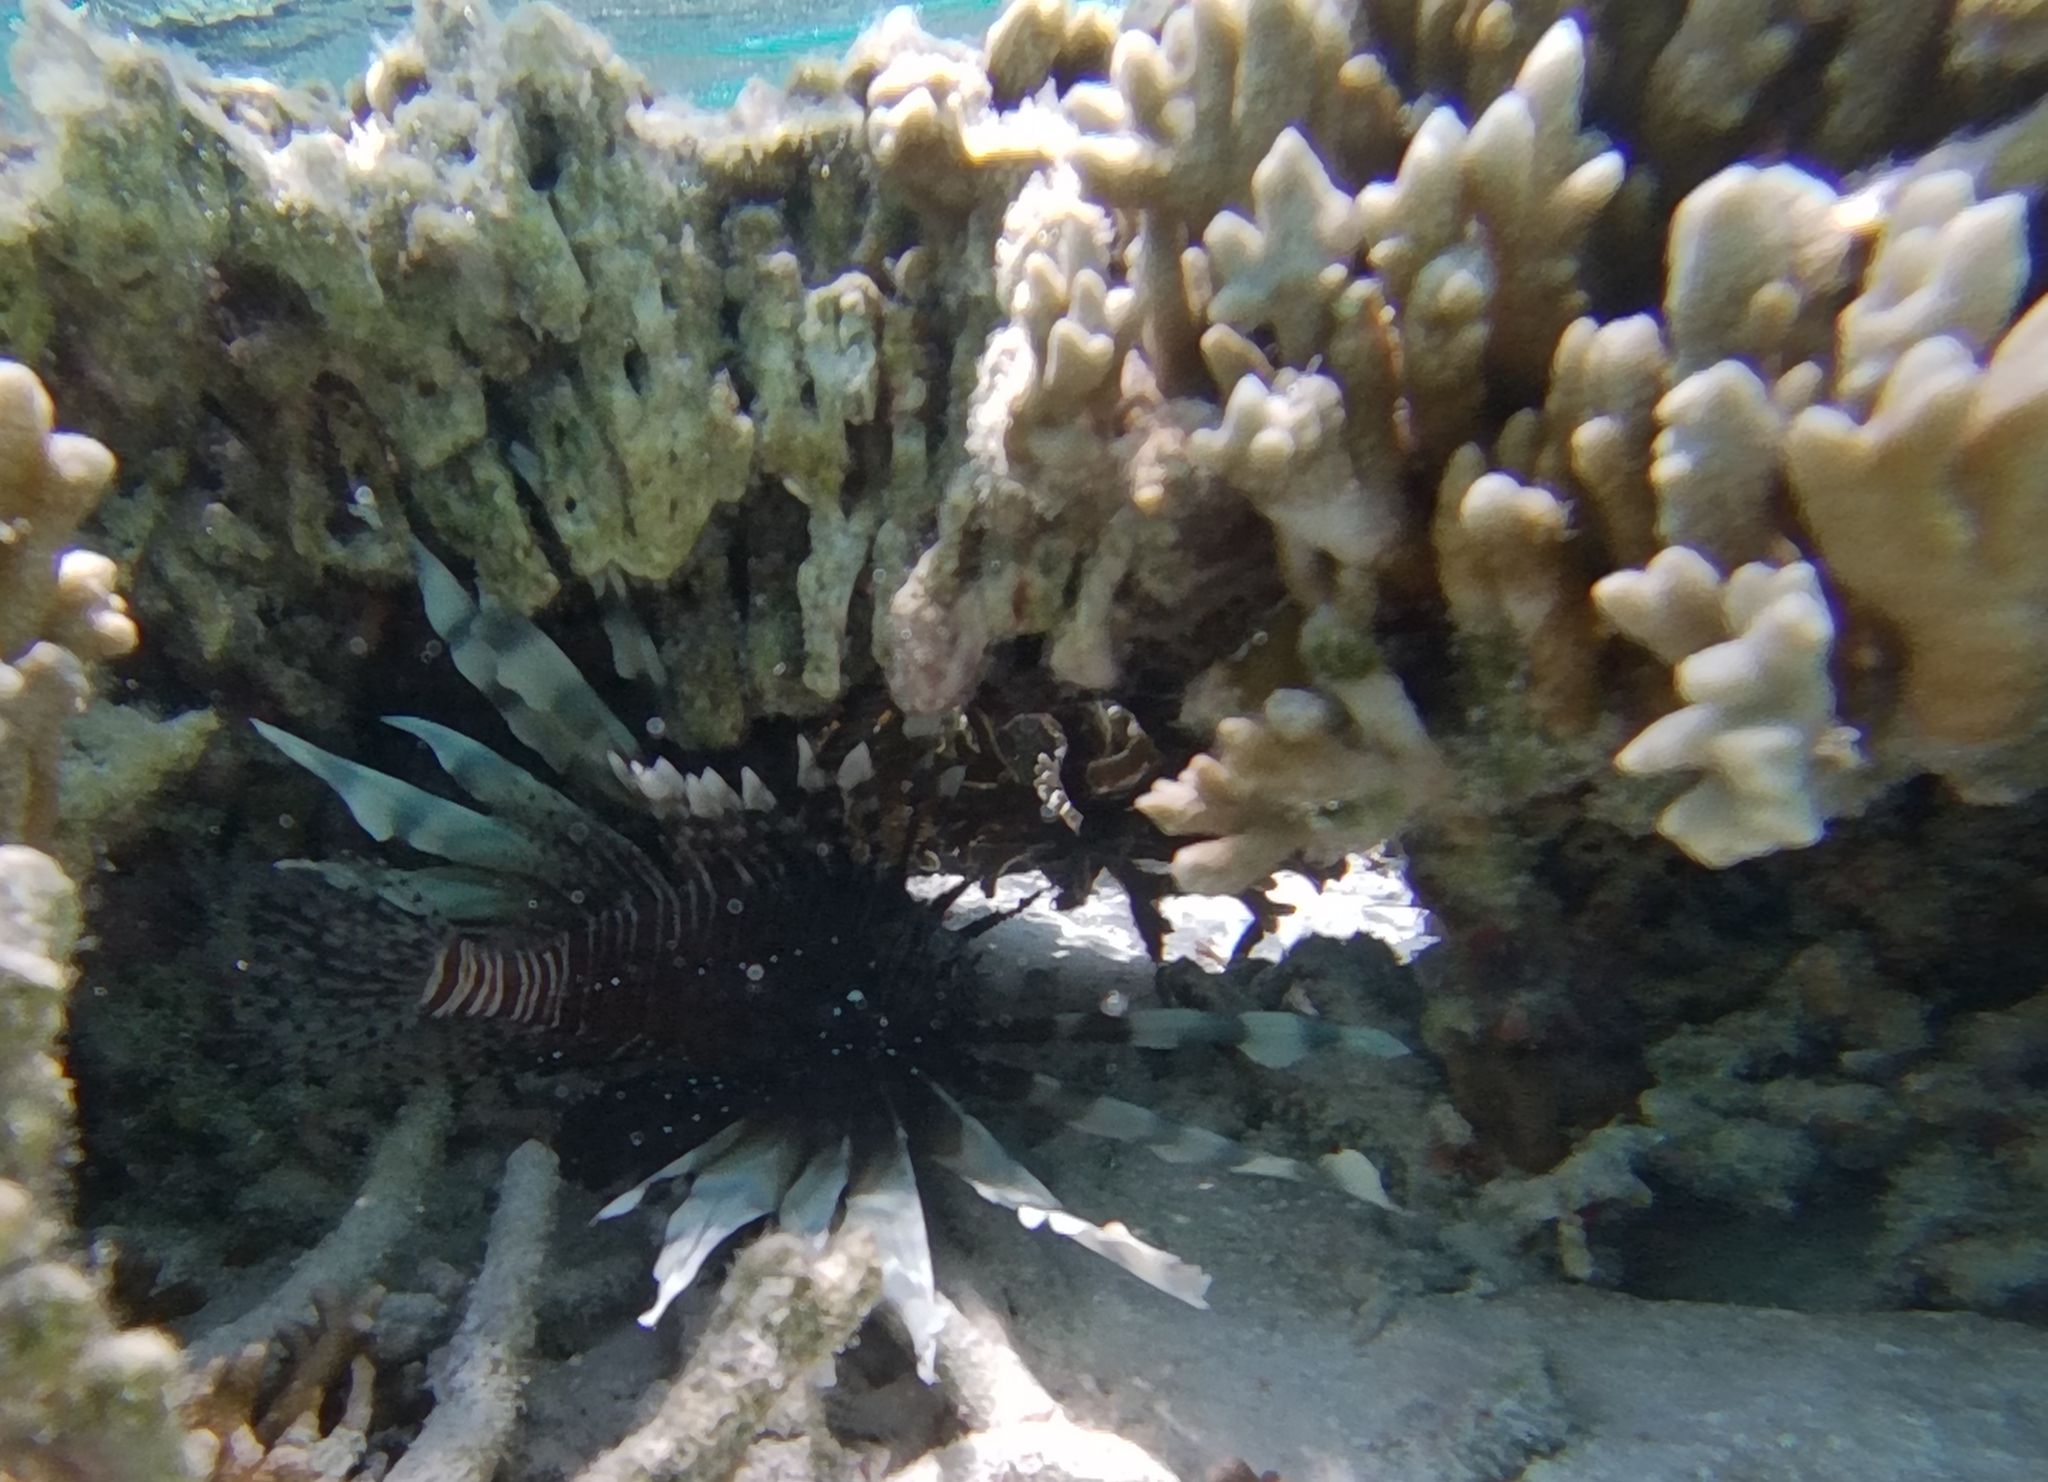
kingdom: Animalia
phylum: Chordata
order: Scorpaeniformes
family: Scorpaenidae
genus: Pterois
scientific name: Pterois miles
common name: Devil firefish
